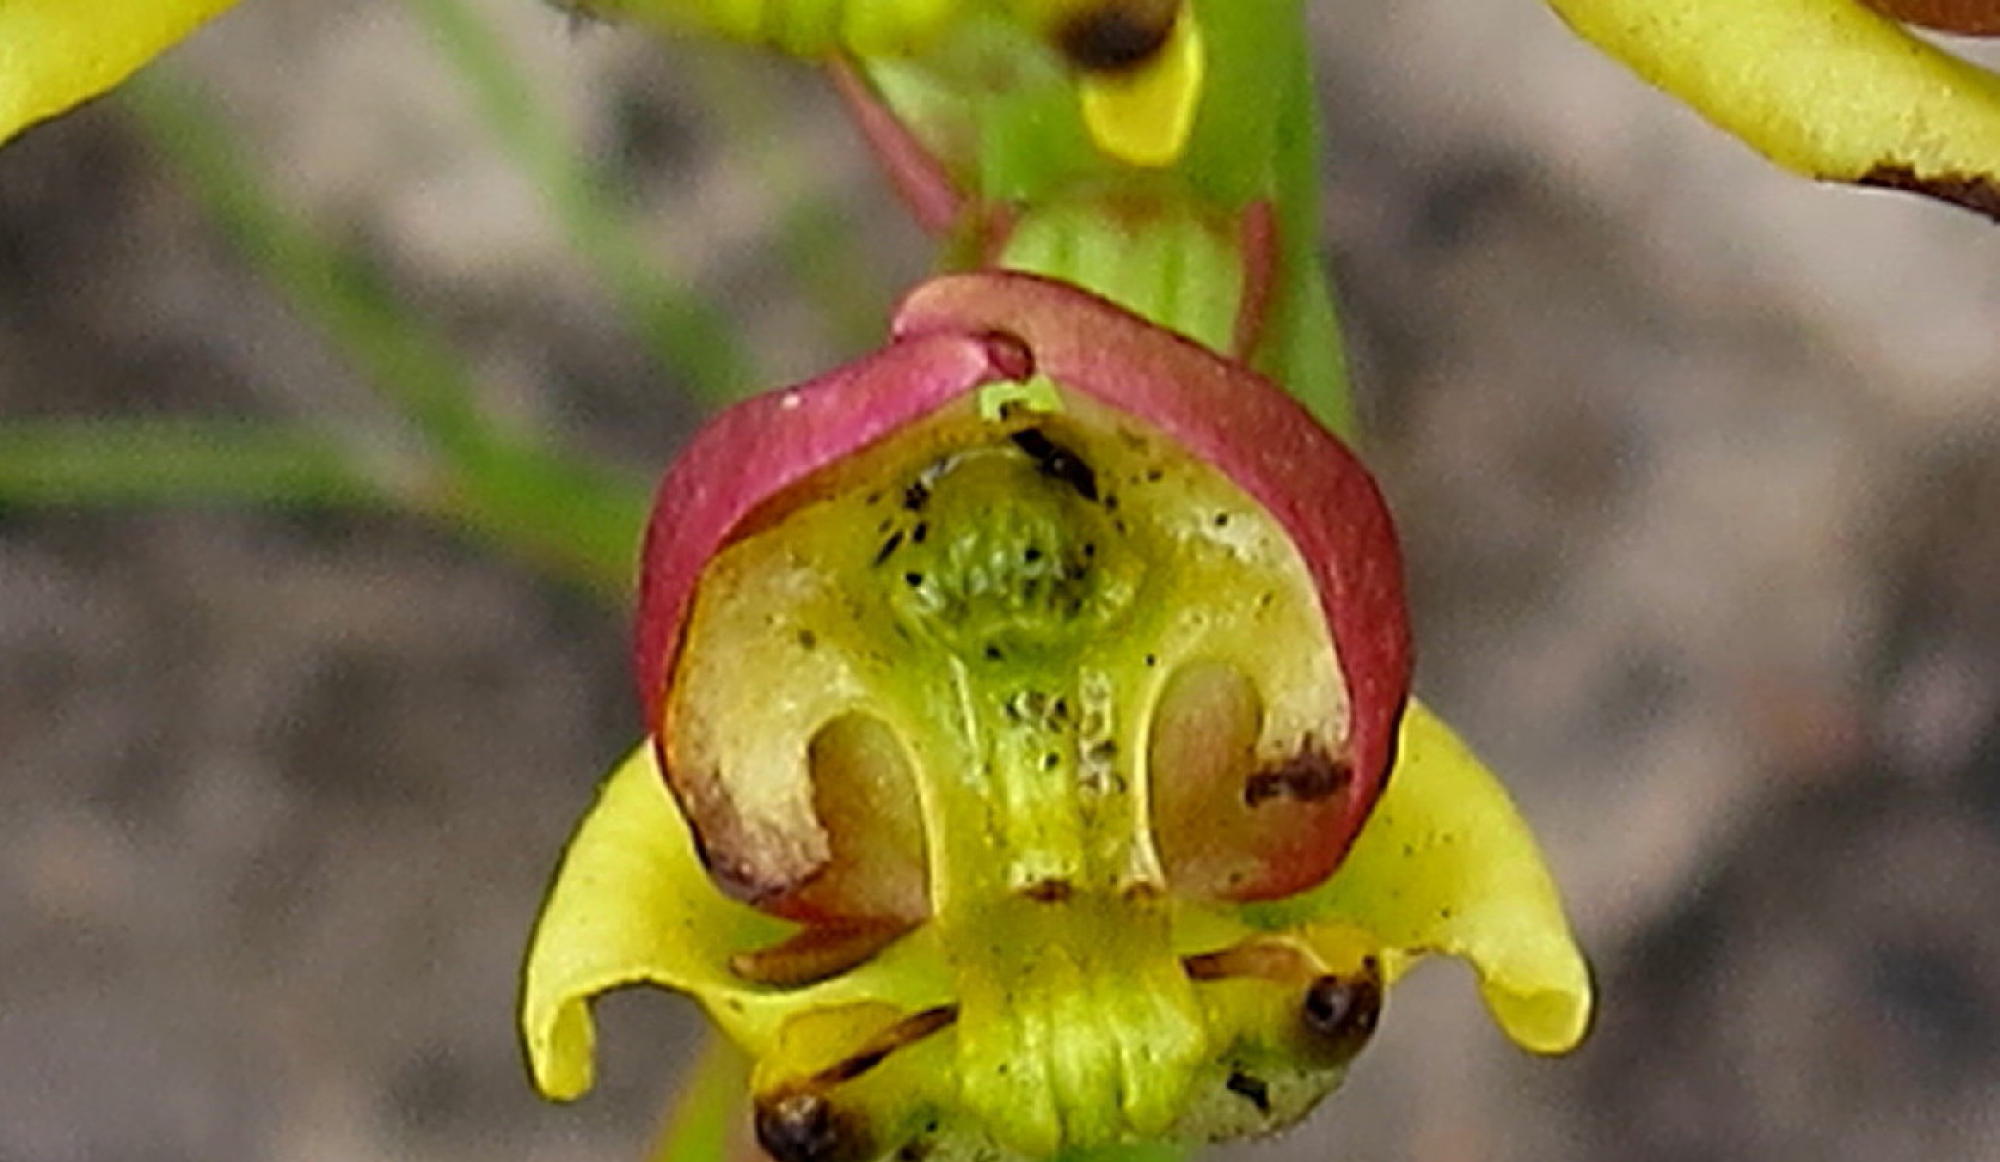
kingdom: Plantae
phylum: Tracheophyta
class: Liliopsida
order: Asparagales
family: Orchidaceae
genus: Ceratandra
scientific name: Ceratandra atrata
